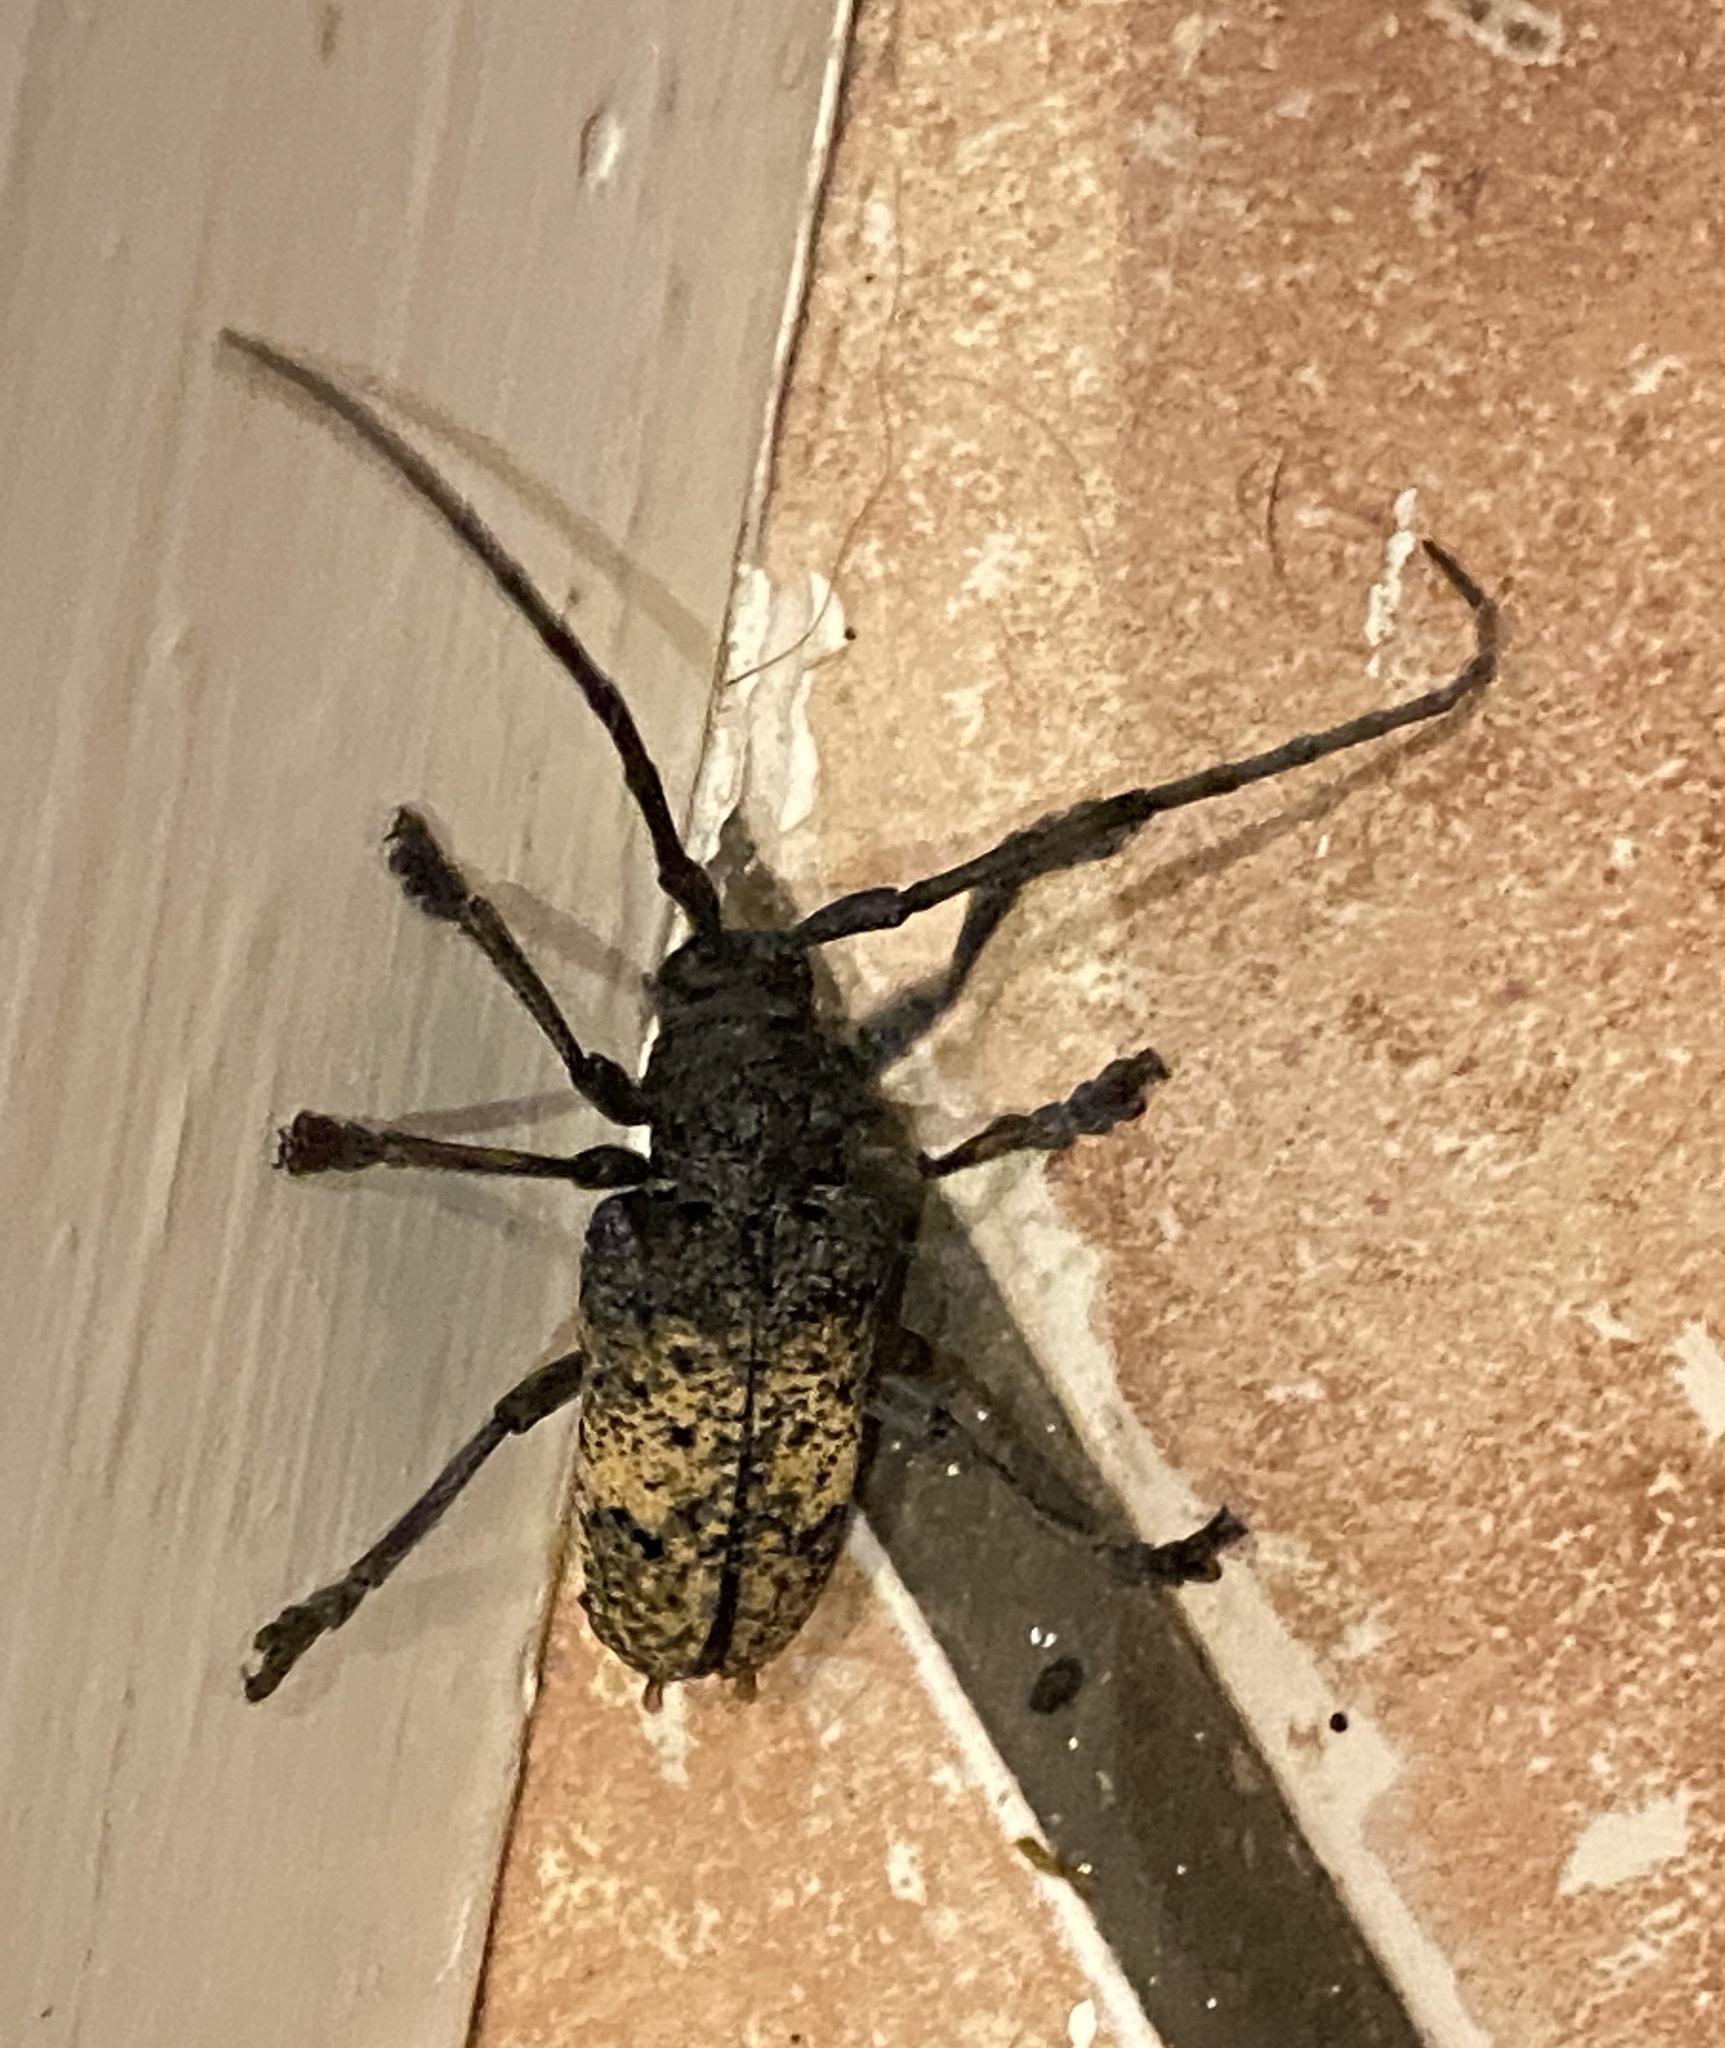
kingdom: Animalia
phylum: Arthropoda
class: Insecta
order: Coleoptera
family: Cerambycidae
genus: Phryneta
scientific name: Phryneta spinator
